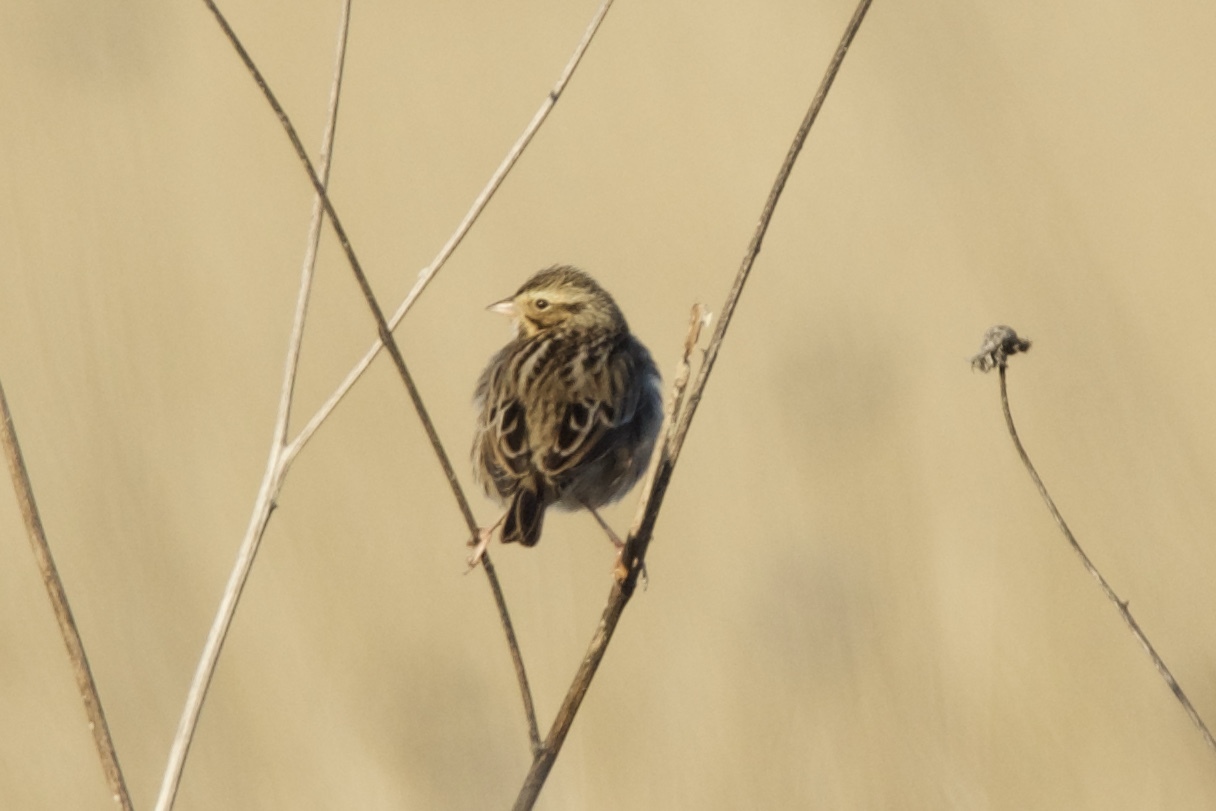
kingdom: Animalia
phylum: Chordata
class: Aves
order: Passeriformes
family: Passerellidae
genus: Passerculus
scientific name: Passerculus sandwichensis
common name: Savannah sparrow
